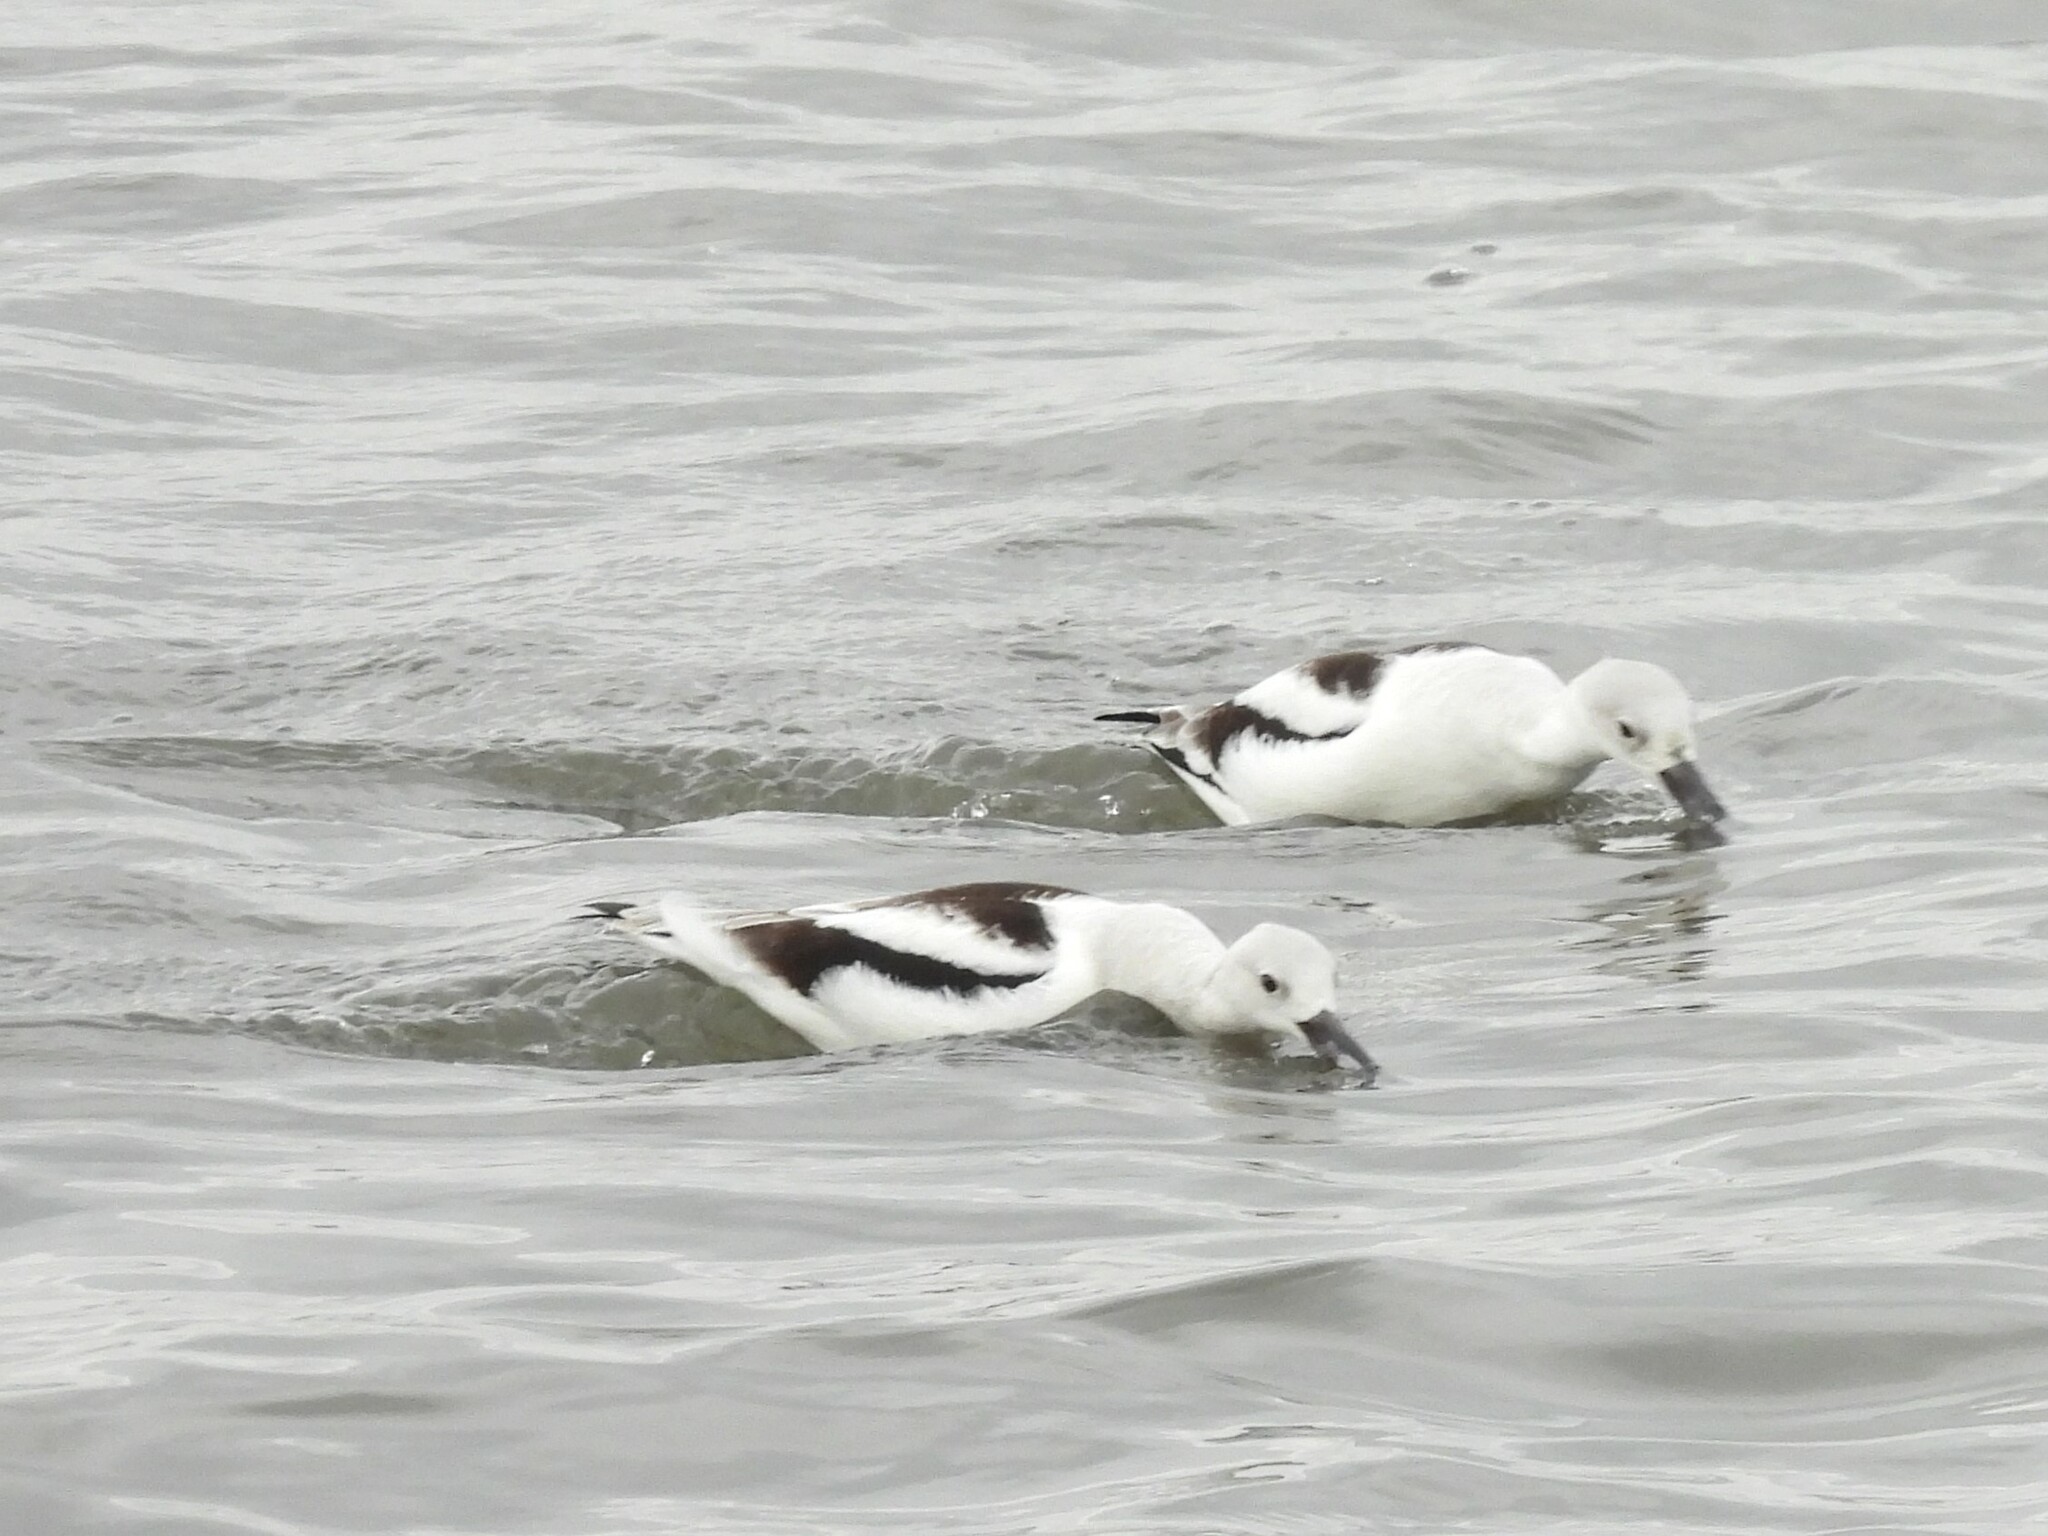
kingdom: Animalia
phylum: Chordata
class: Aves
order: Charadriiformes
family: Recurvirostridae
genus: Recurvirostra
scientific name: Recurvirostra americana
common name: American avocet
